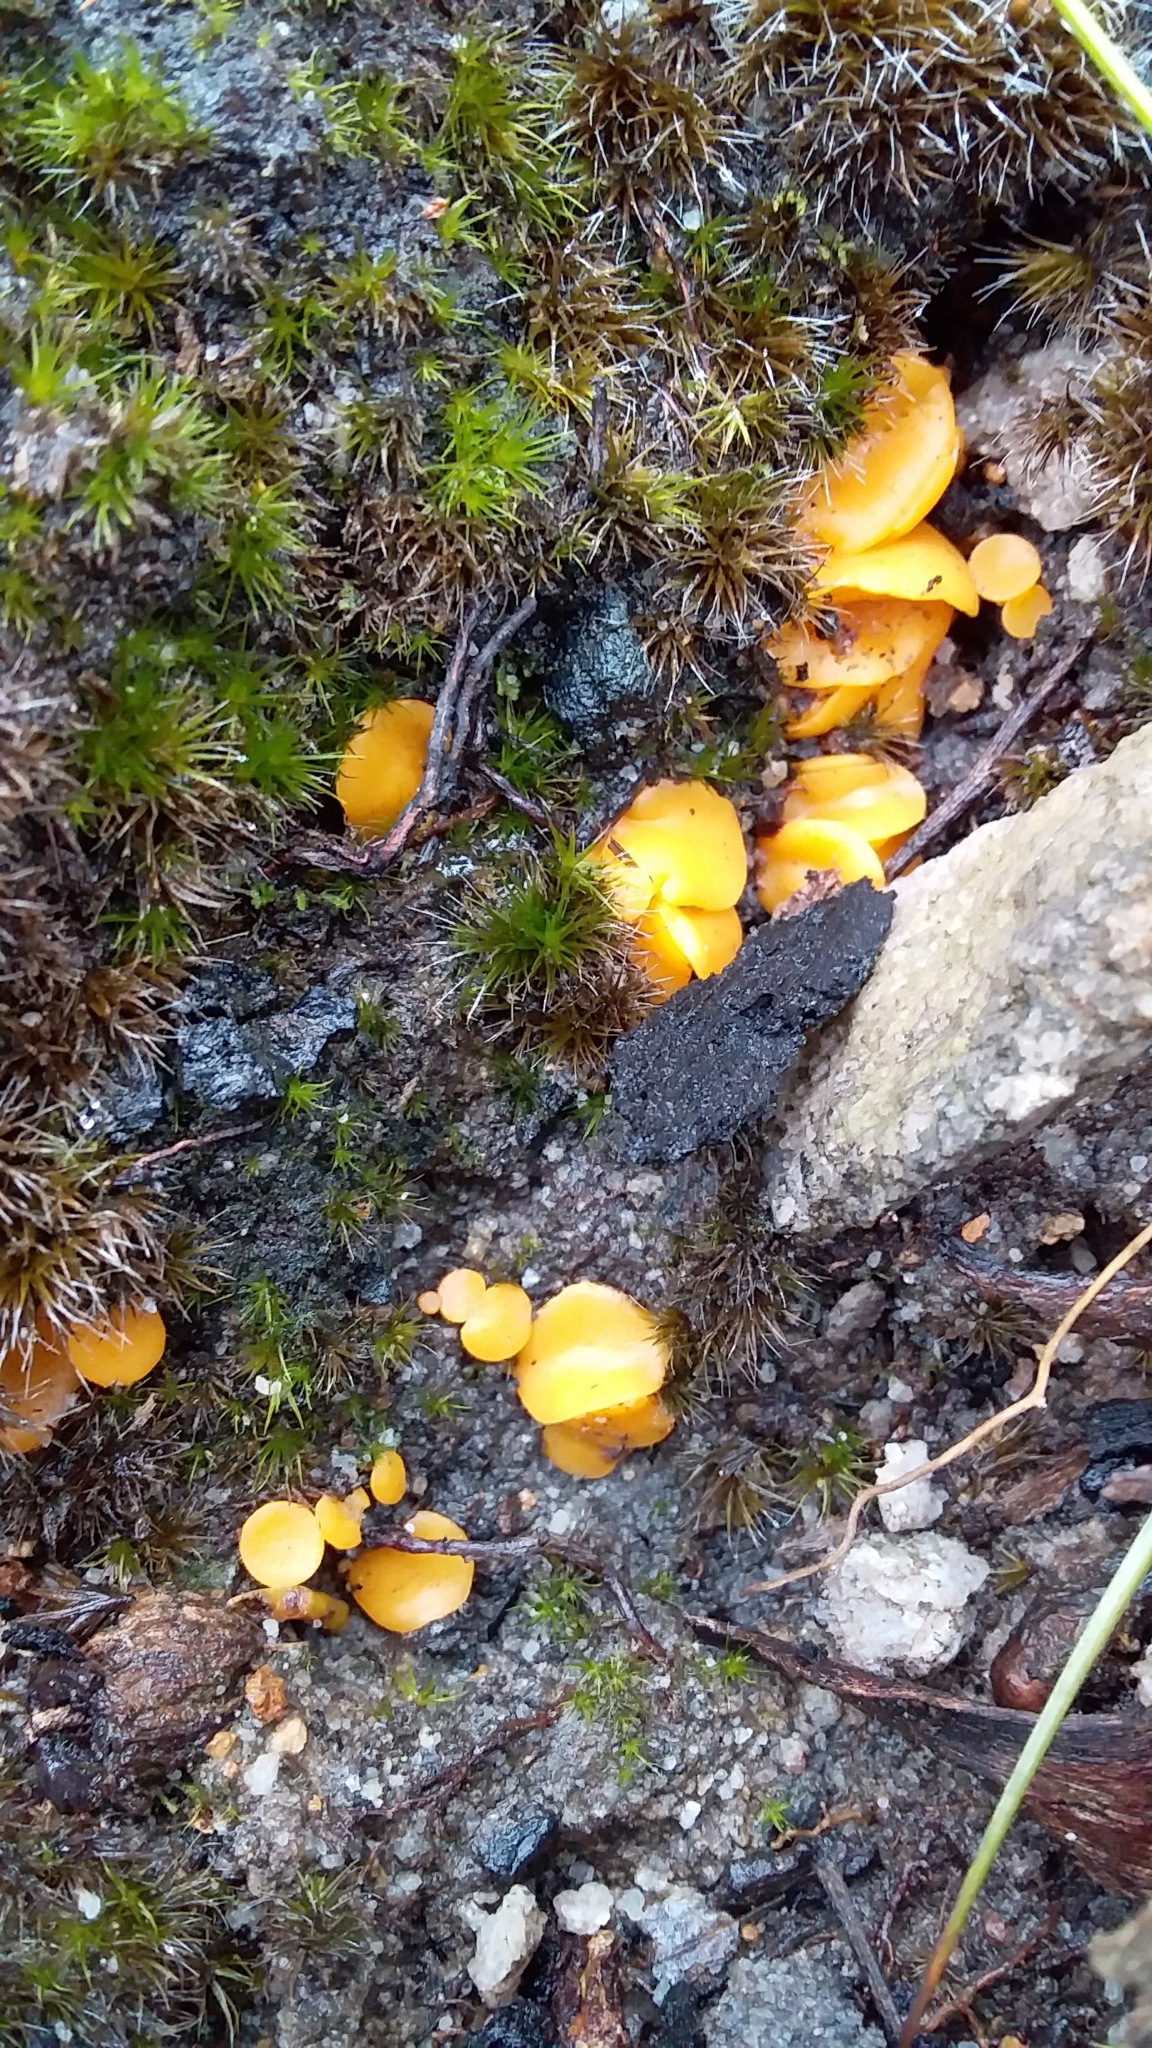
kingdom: Fungi
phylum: Ascomycota
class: Leotiomycetes
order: Helotiales
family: Helotiaceae
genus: Phaeohelotium
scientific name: Phaeohelotium baileyanum
